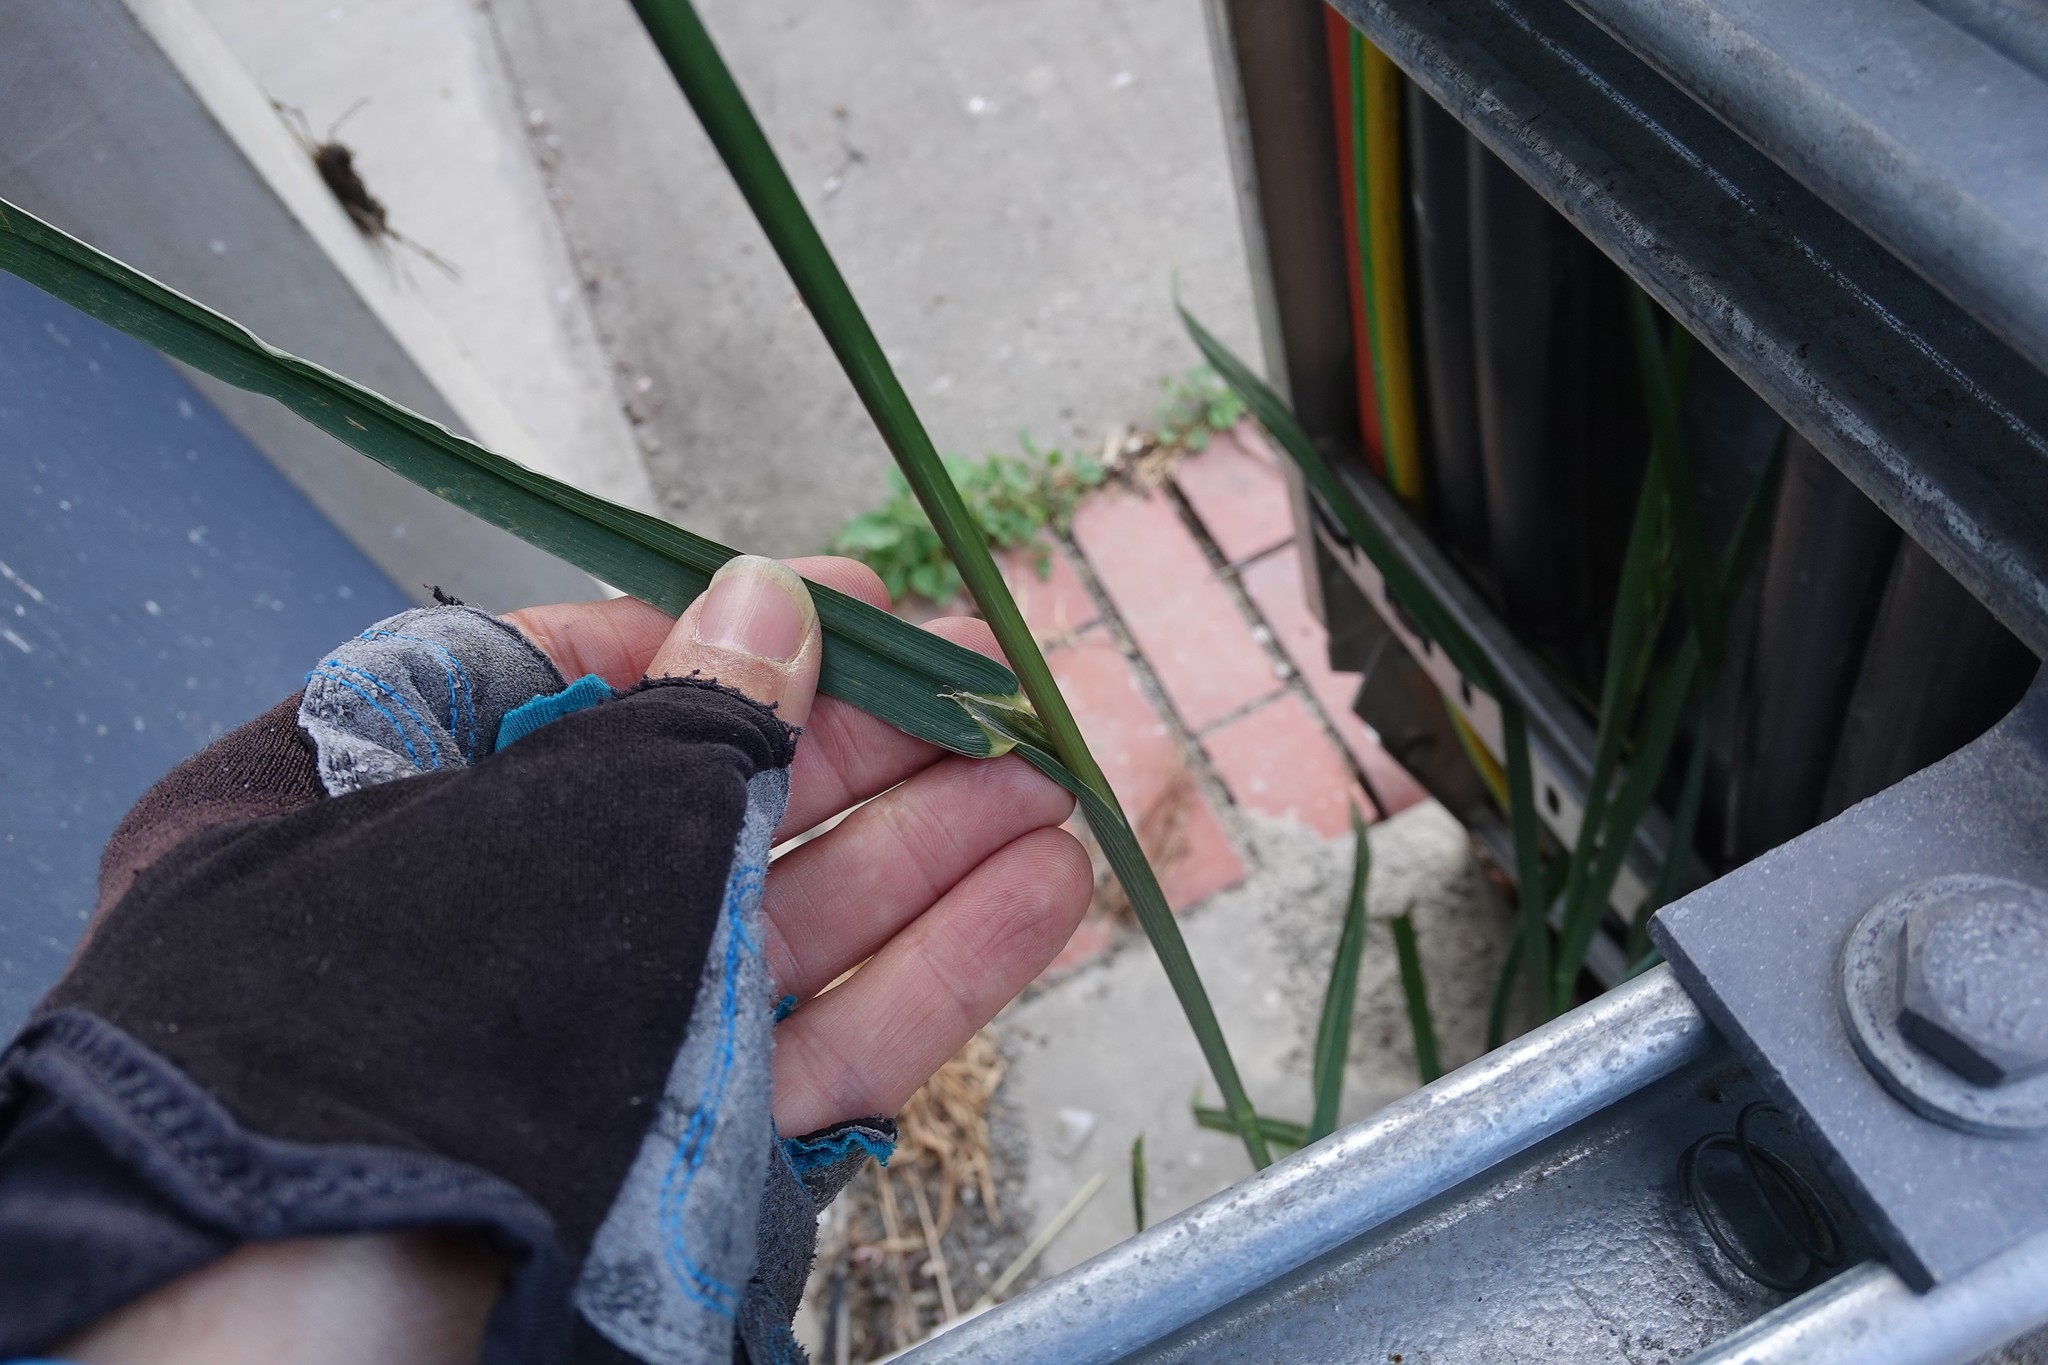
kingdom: Plantae
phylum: Tracheophyta
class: Liliopsida
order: Poales
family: Poaceae
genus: Bromus
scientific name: Bromus catharticus
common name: Rescuegrass
